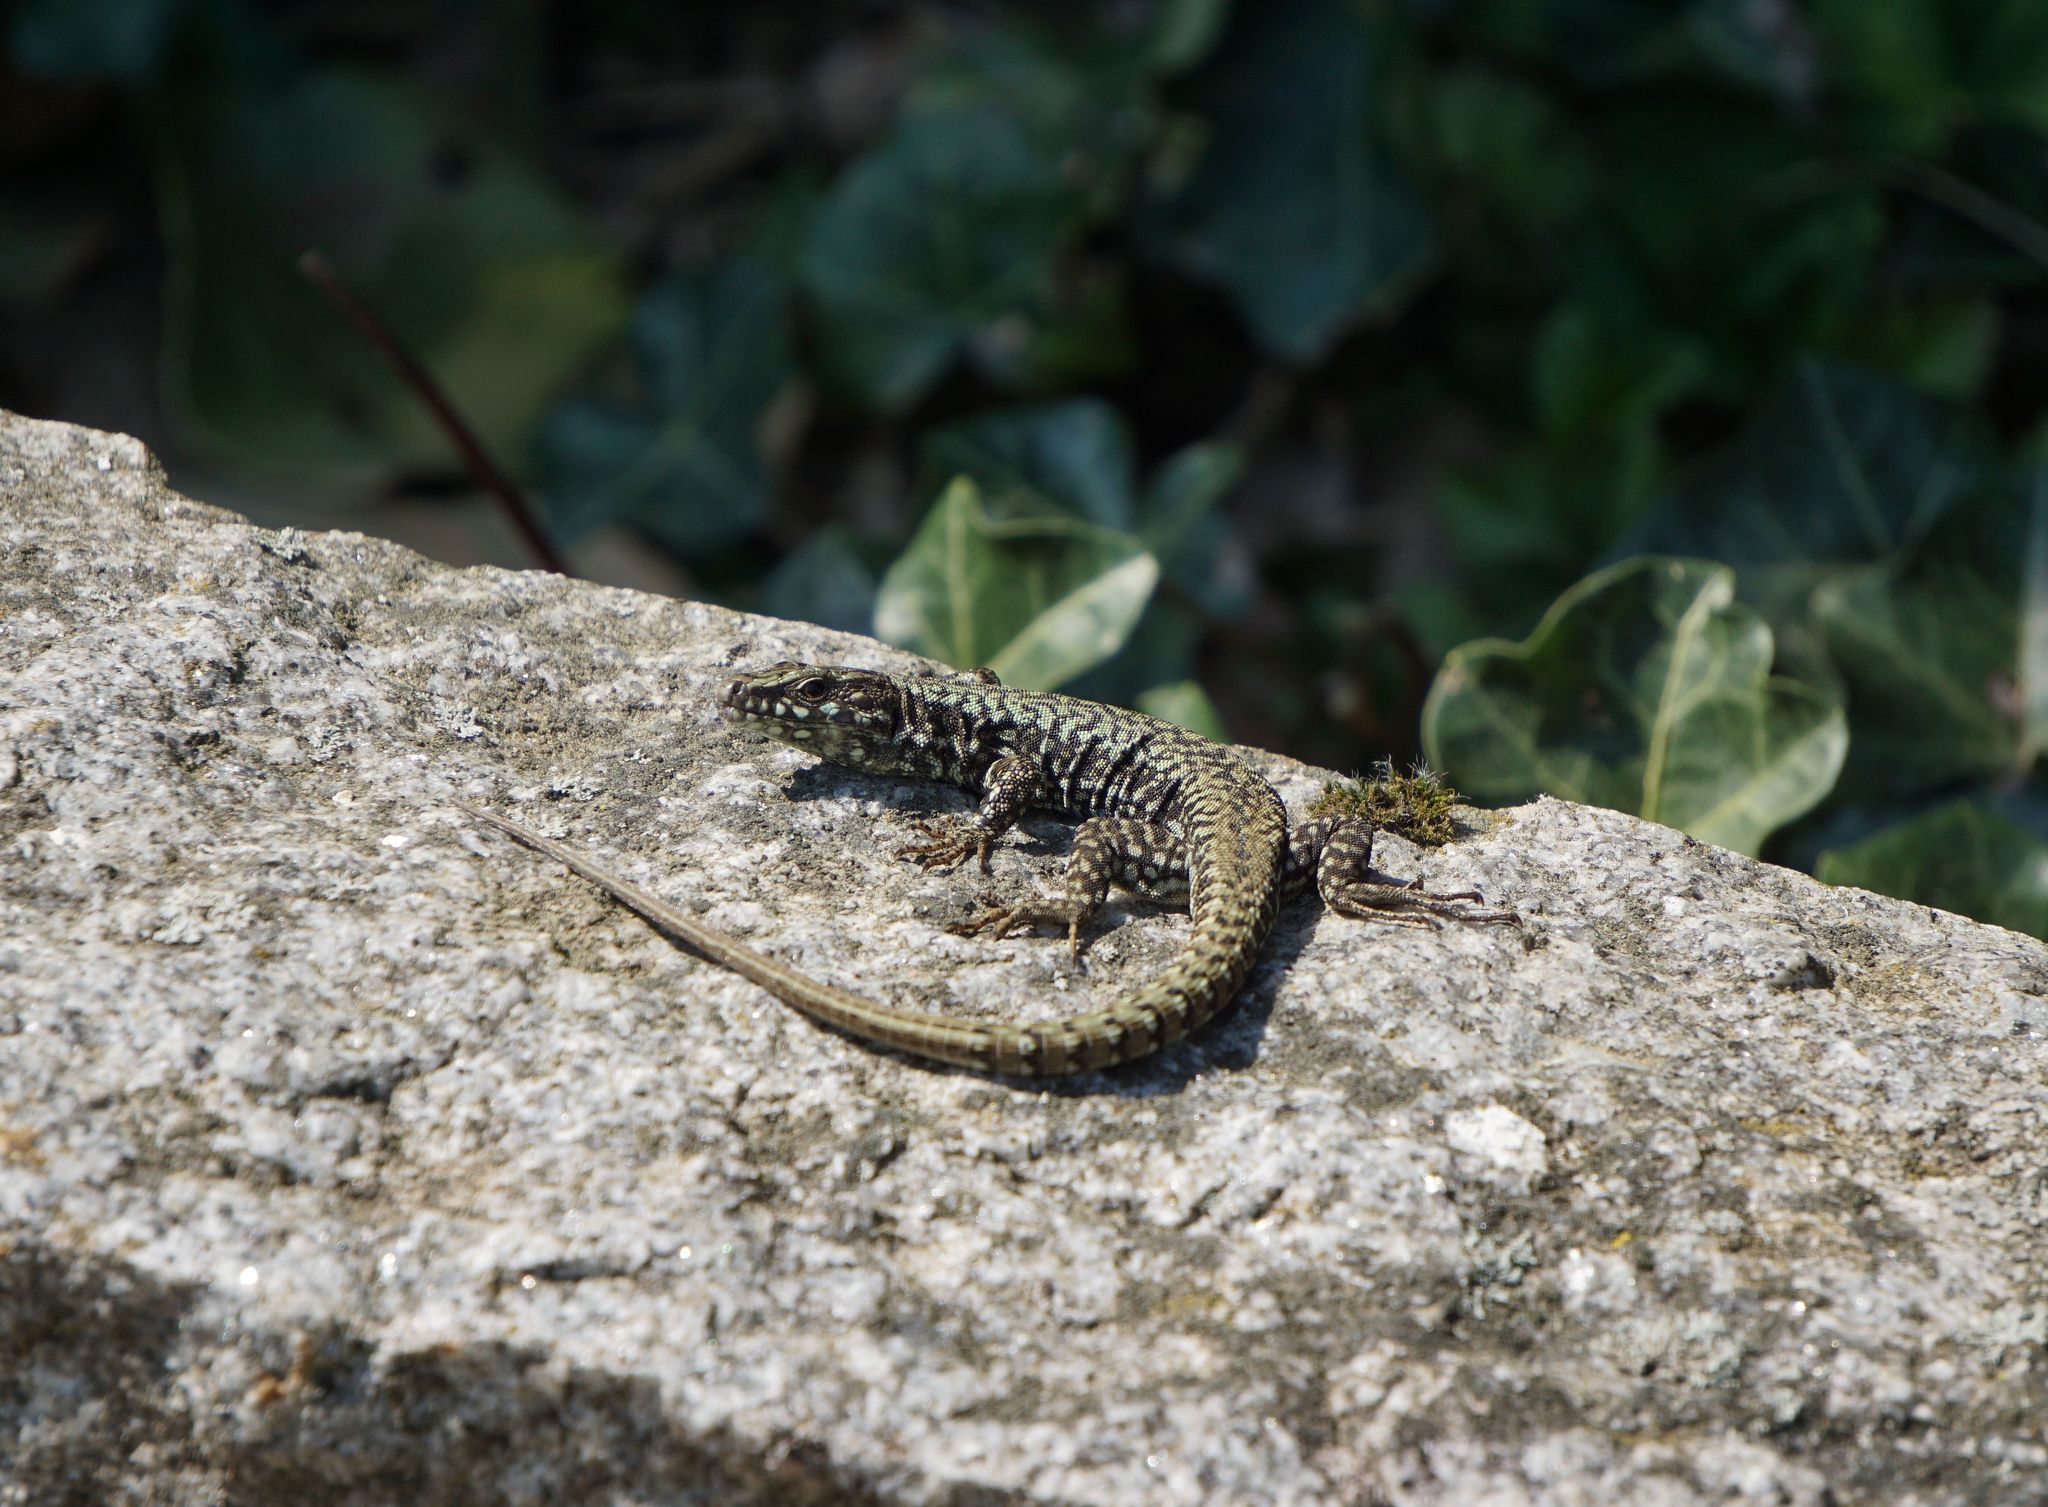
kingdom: Animalia
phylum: Chordata
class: Squamata
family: Lacertidae
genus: Podarcis
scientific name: Podarcis muralis
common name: Common wall lizard
